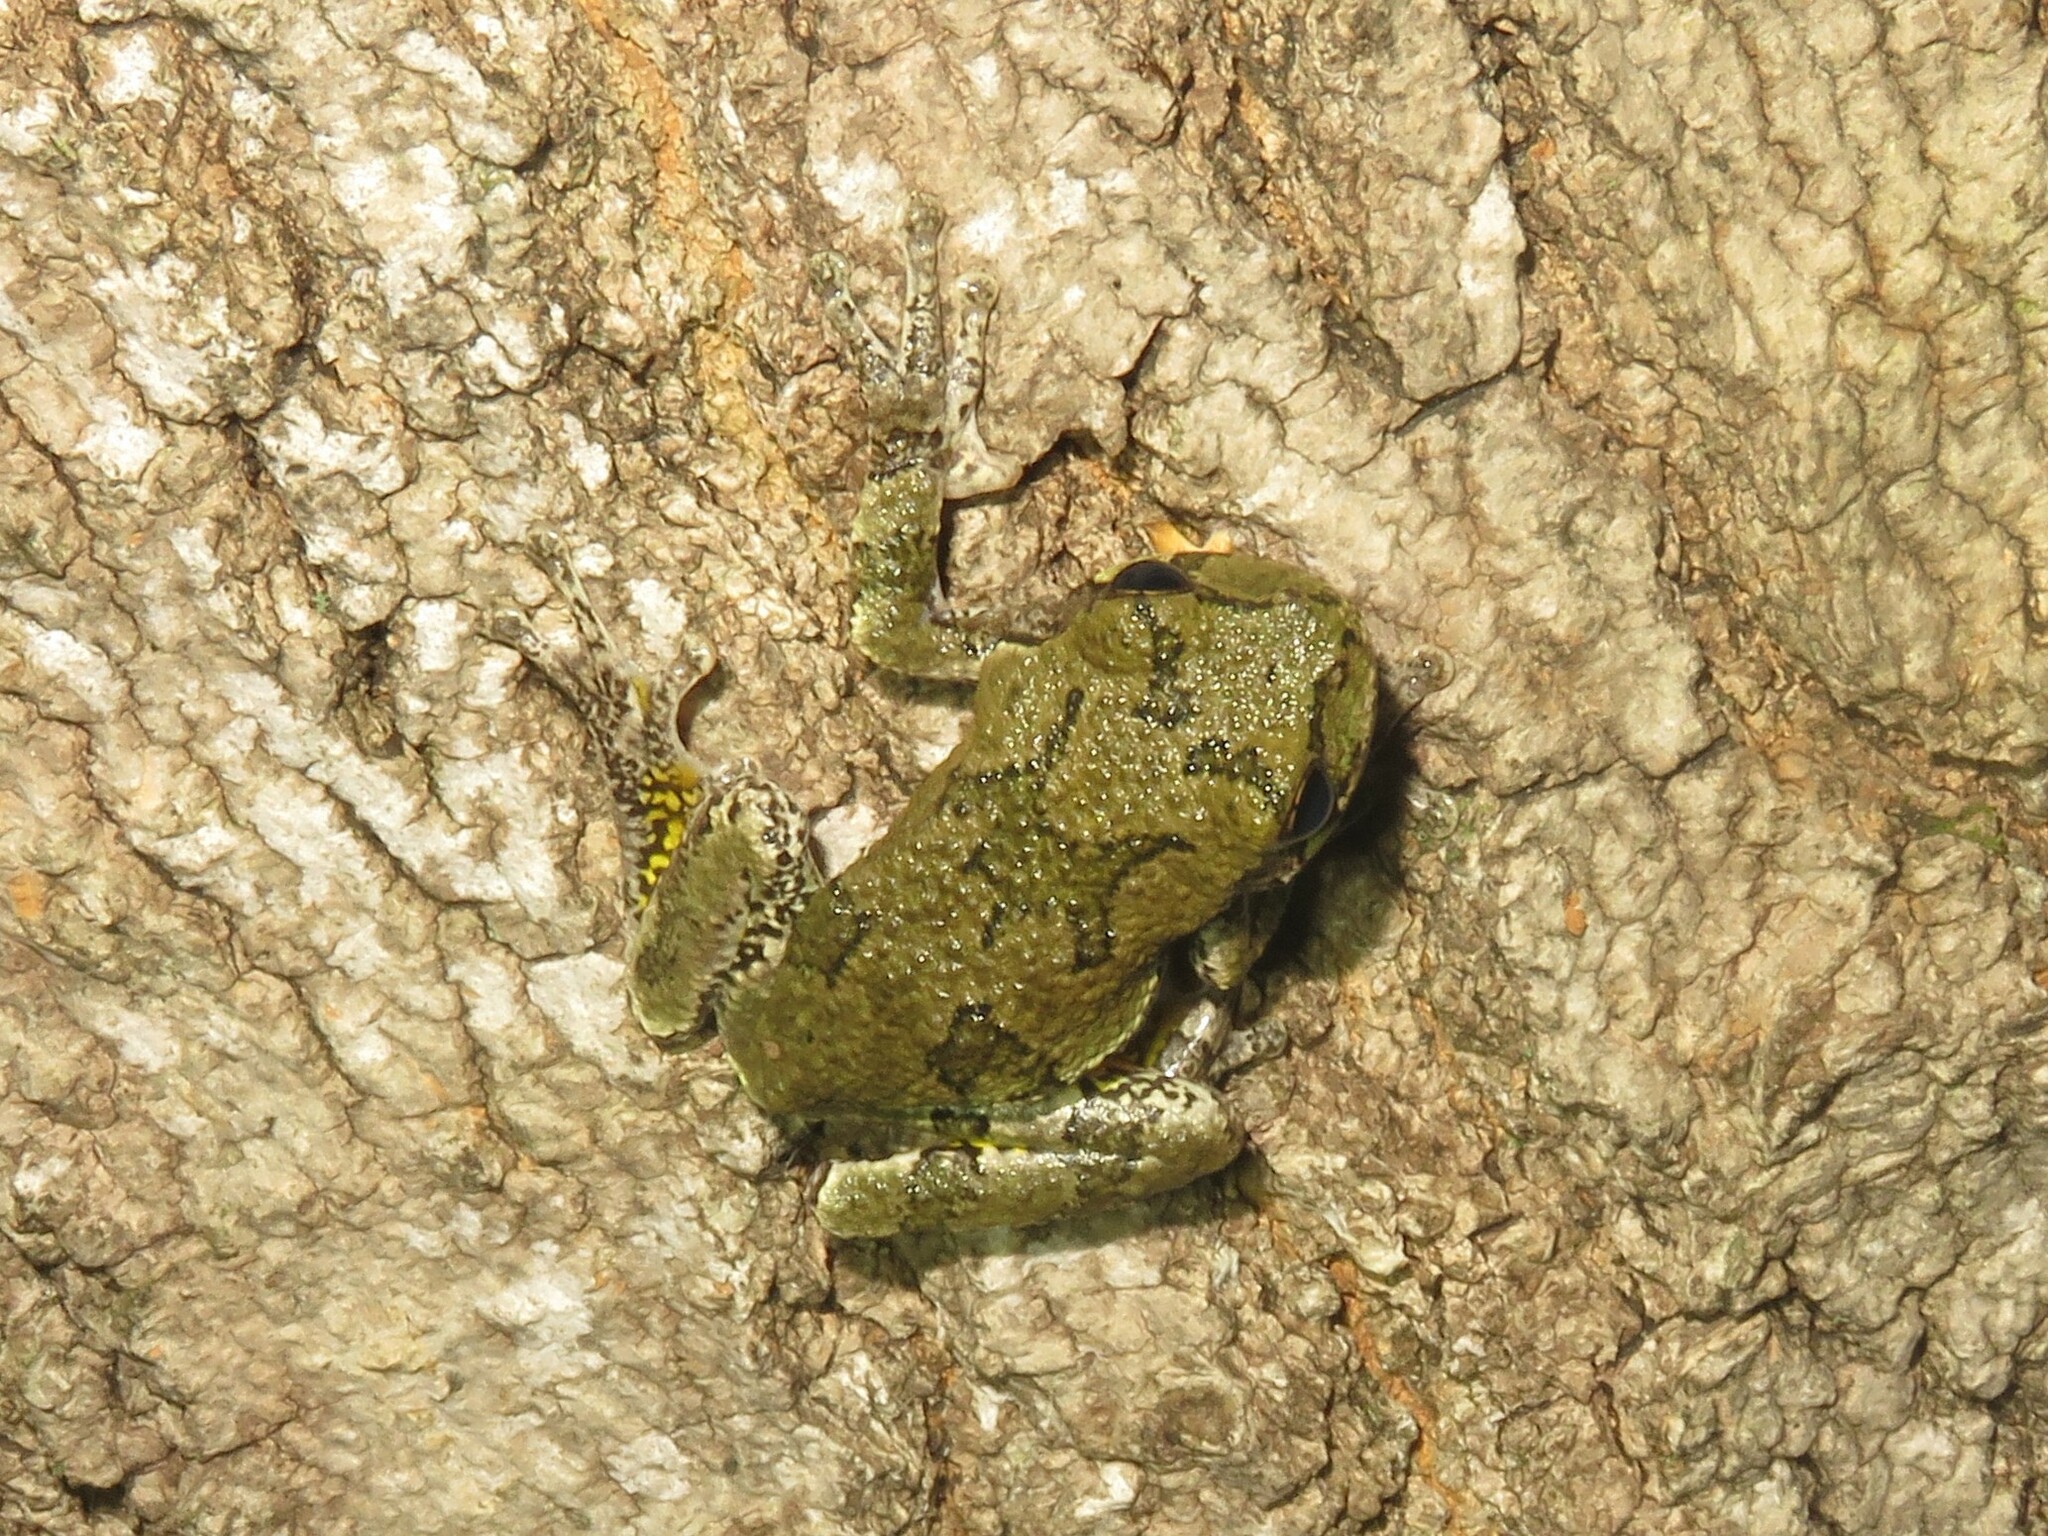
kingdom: Animalia
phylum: Chordata
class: Amphibia
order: Anura
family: Hylidae
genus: Dryophytes
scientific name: Dryophytes versicolor
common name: Gray treefrog
